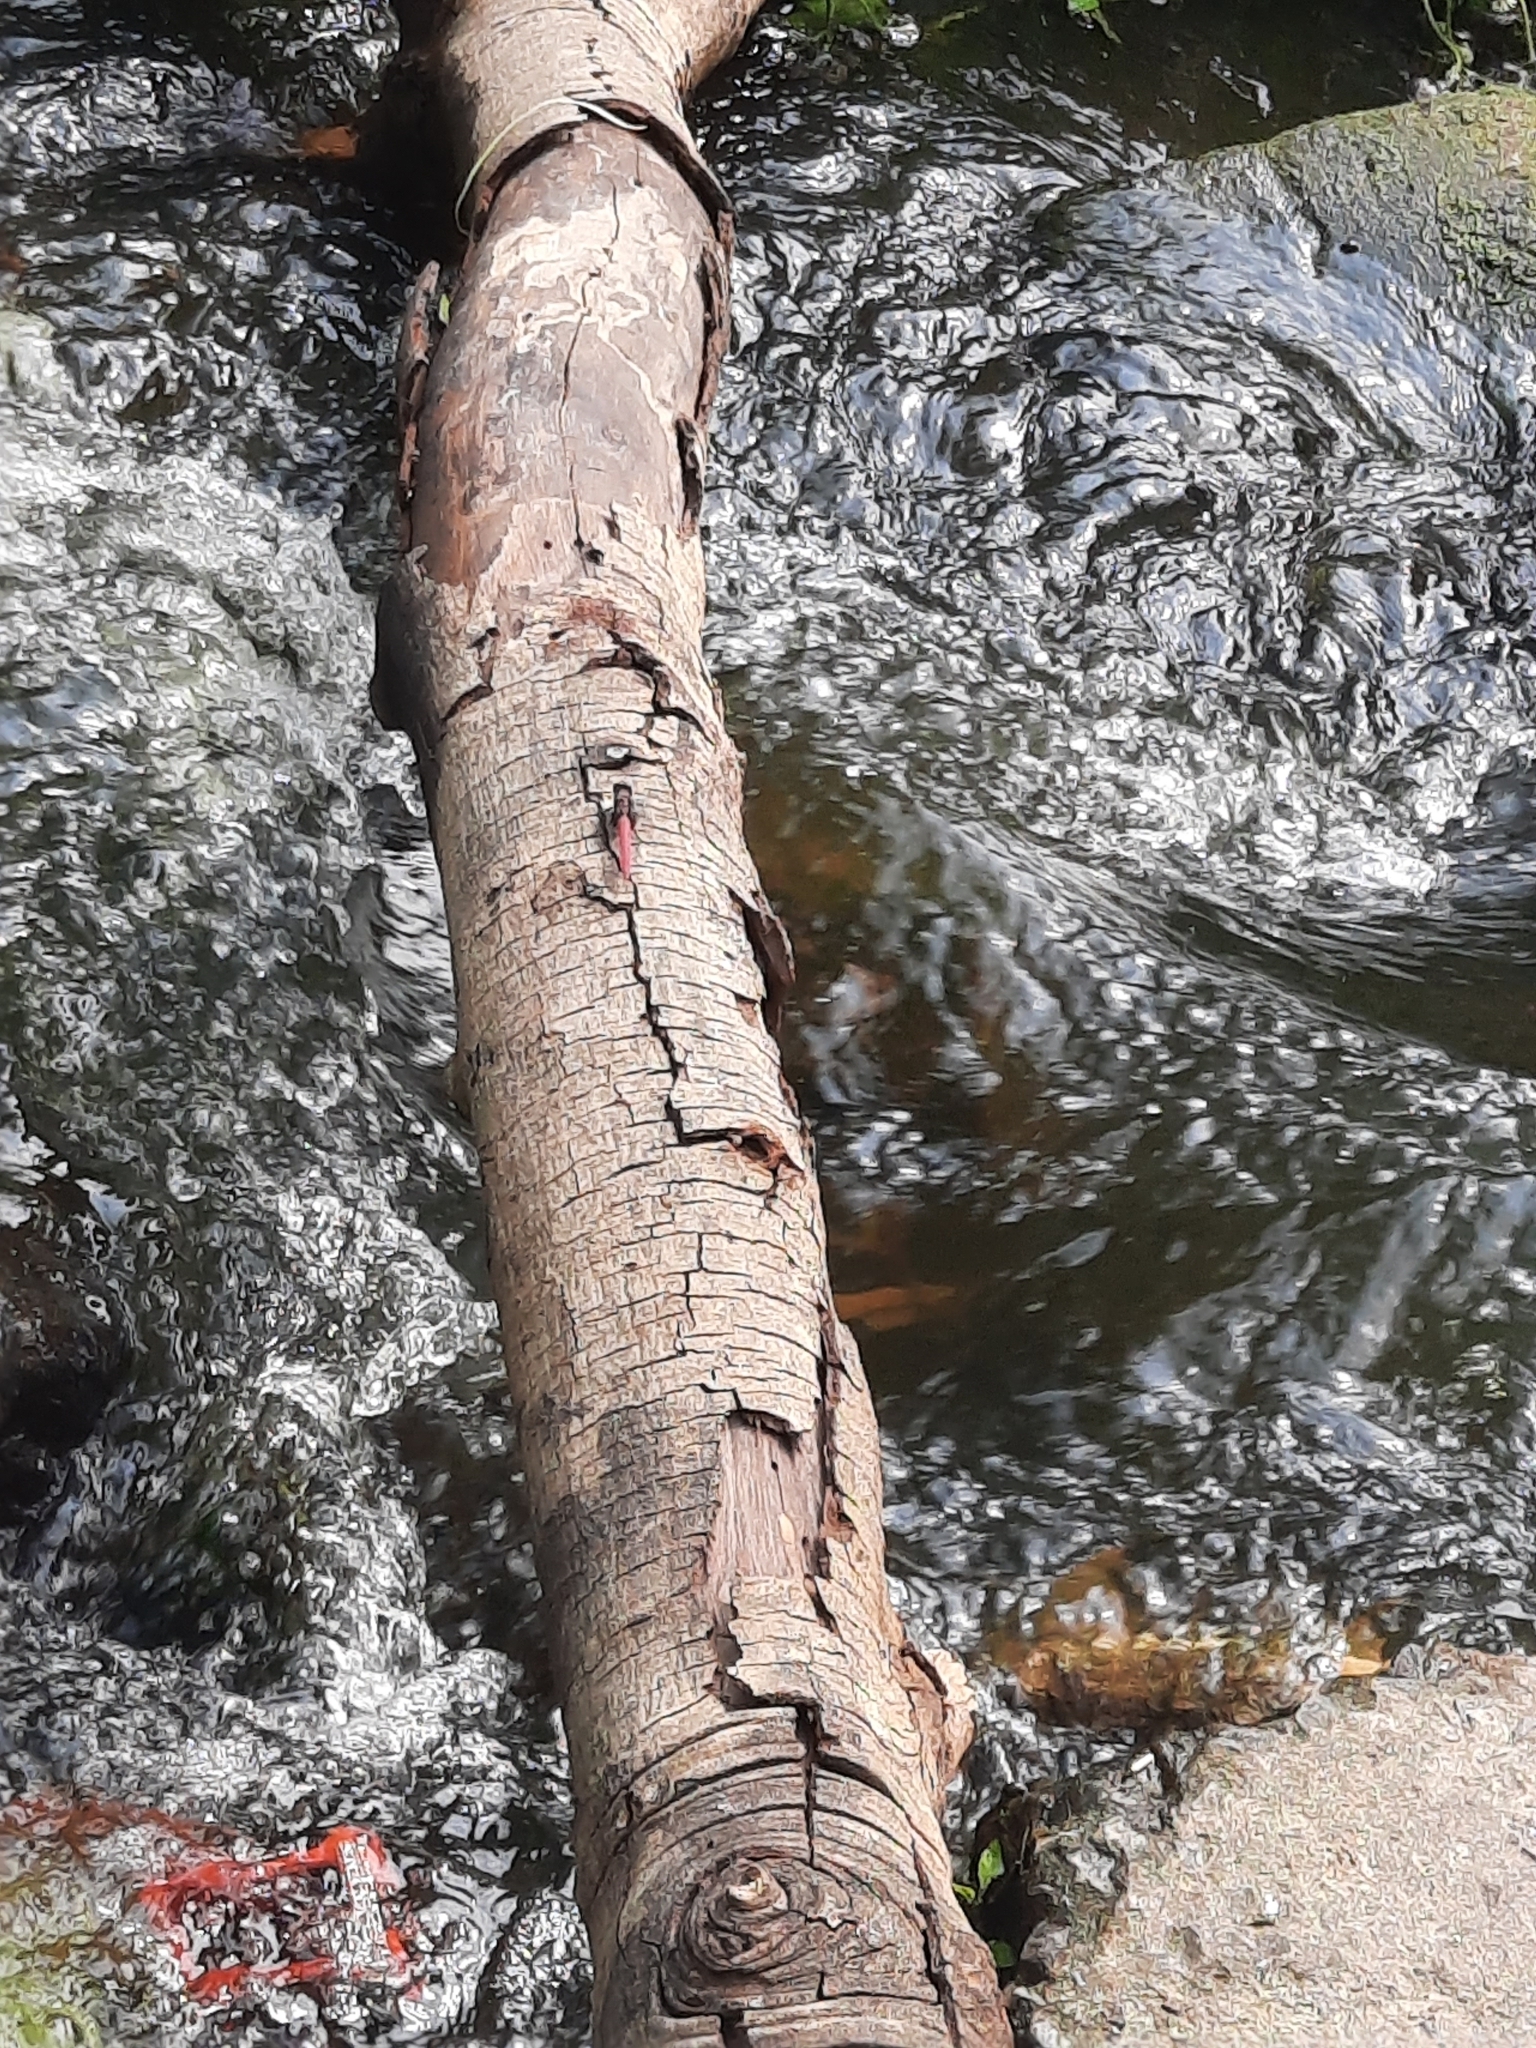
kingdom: Animalia
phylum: Arthropoda
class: Insecta
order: Odonata
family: Libellulidae
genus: Orthetrum
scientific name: Orthetrum pruinosum
